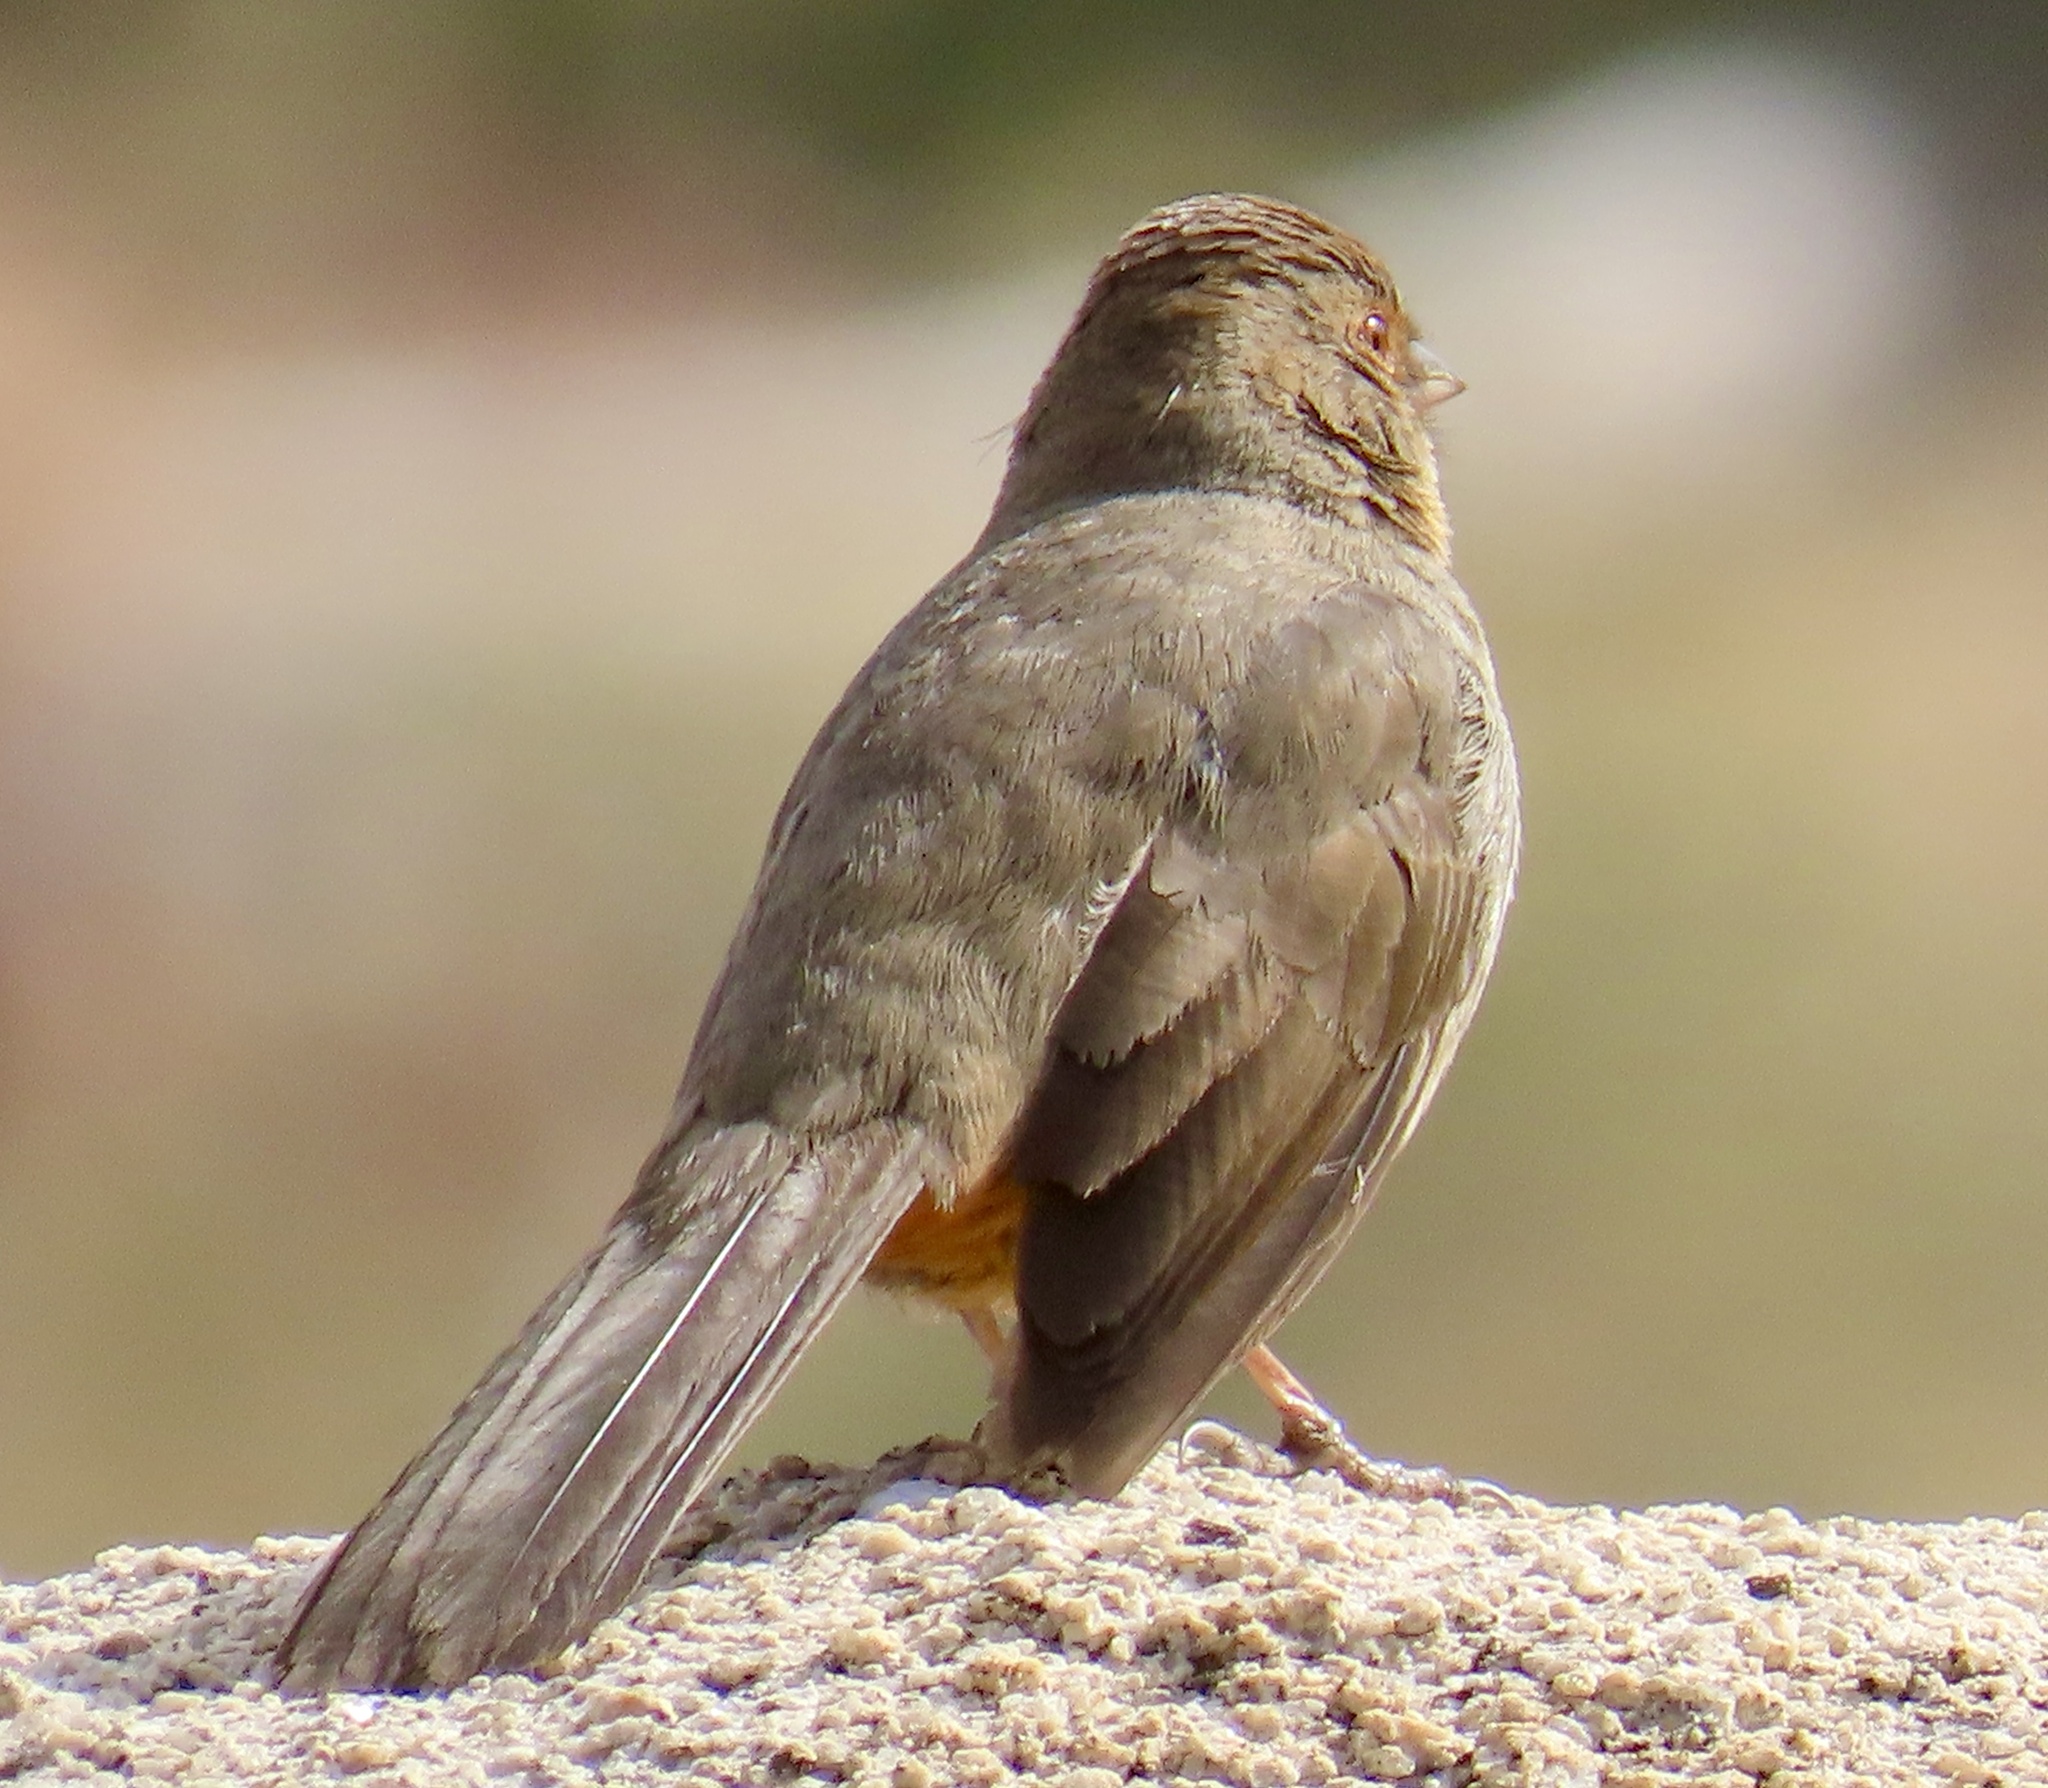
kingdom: Animalia
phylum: Chordata
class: Aves
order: Passeriformes
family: Passerellidae
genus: Melozone
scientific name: Melozone crissalis
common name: California towhee
